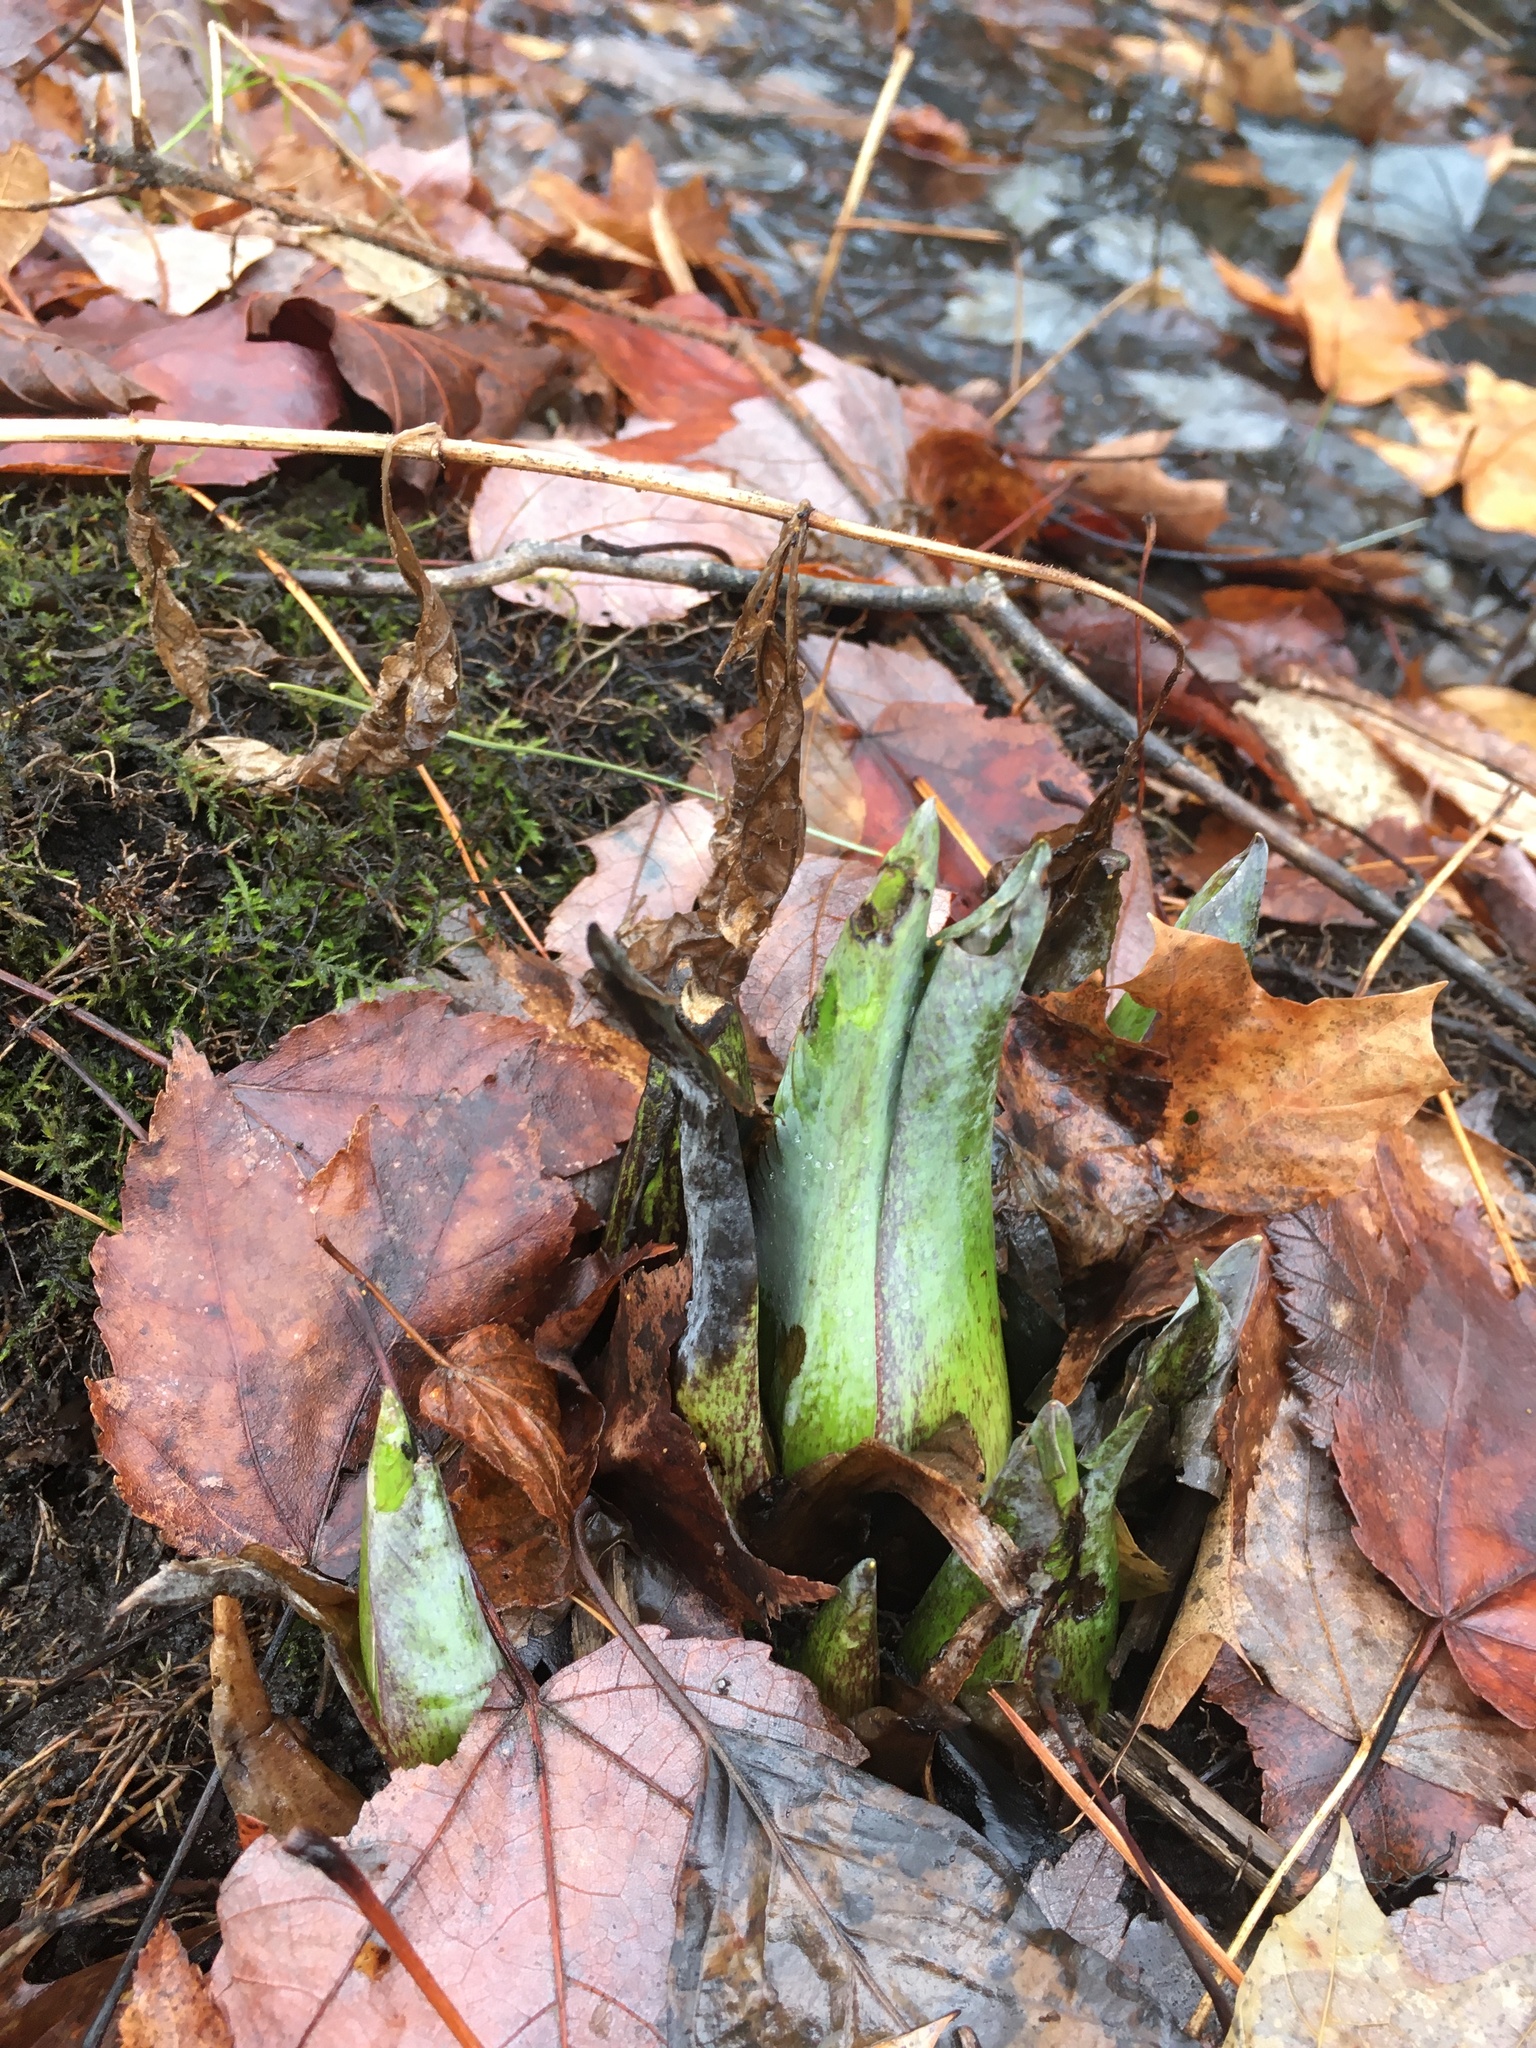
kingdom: Plantae
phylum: Tracheophyta
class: Liliopsida
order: Alismatales
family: Araceae
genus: Symplocarpus
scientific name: Symplocarpus foetidus
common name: Eastern skunk cabbage
